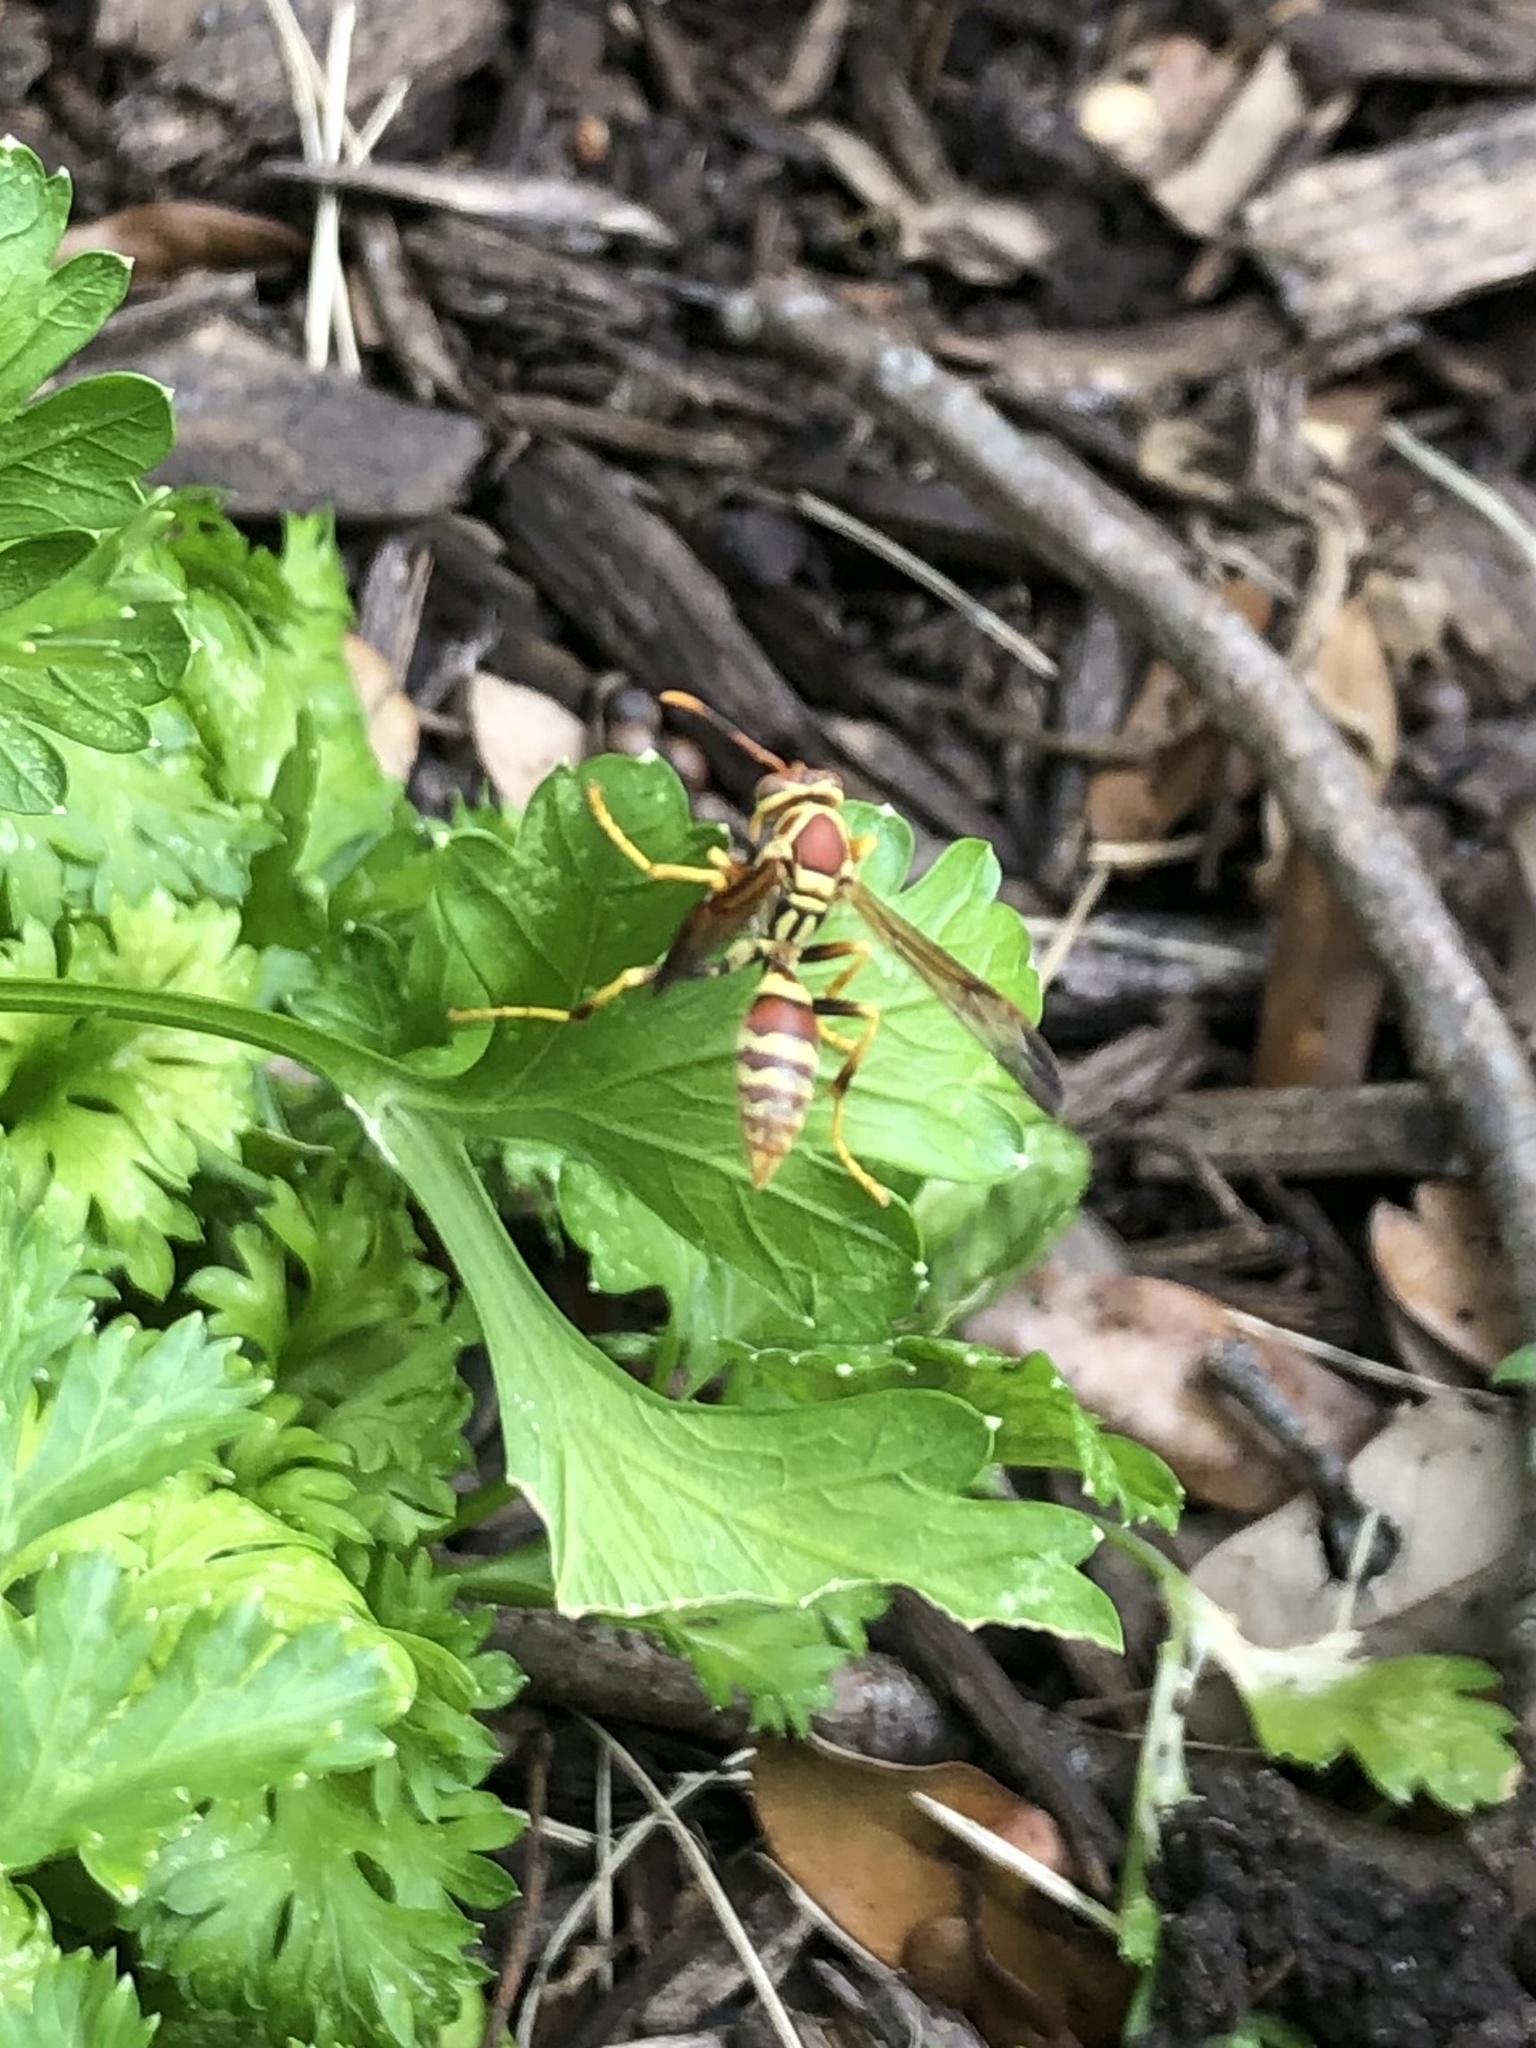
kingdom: Animalia
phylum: Arthropoda
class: Insecta
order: Hymenoptera
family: Eumenidae
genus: Polistes
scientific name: Polistes exclamans
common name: Paper wasp
